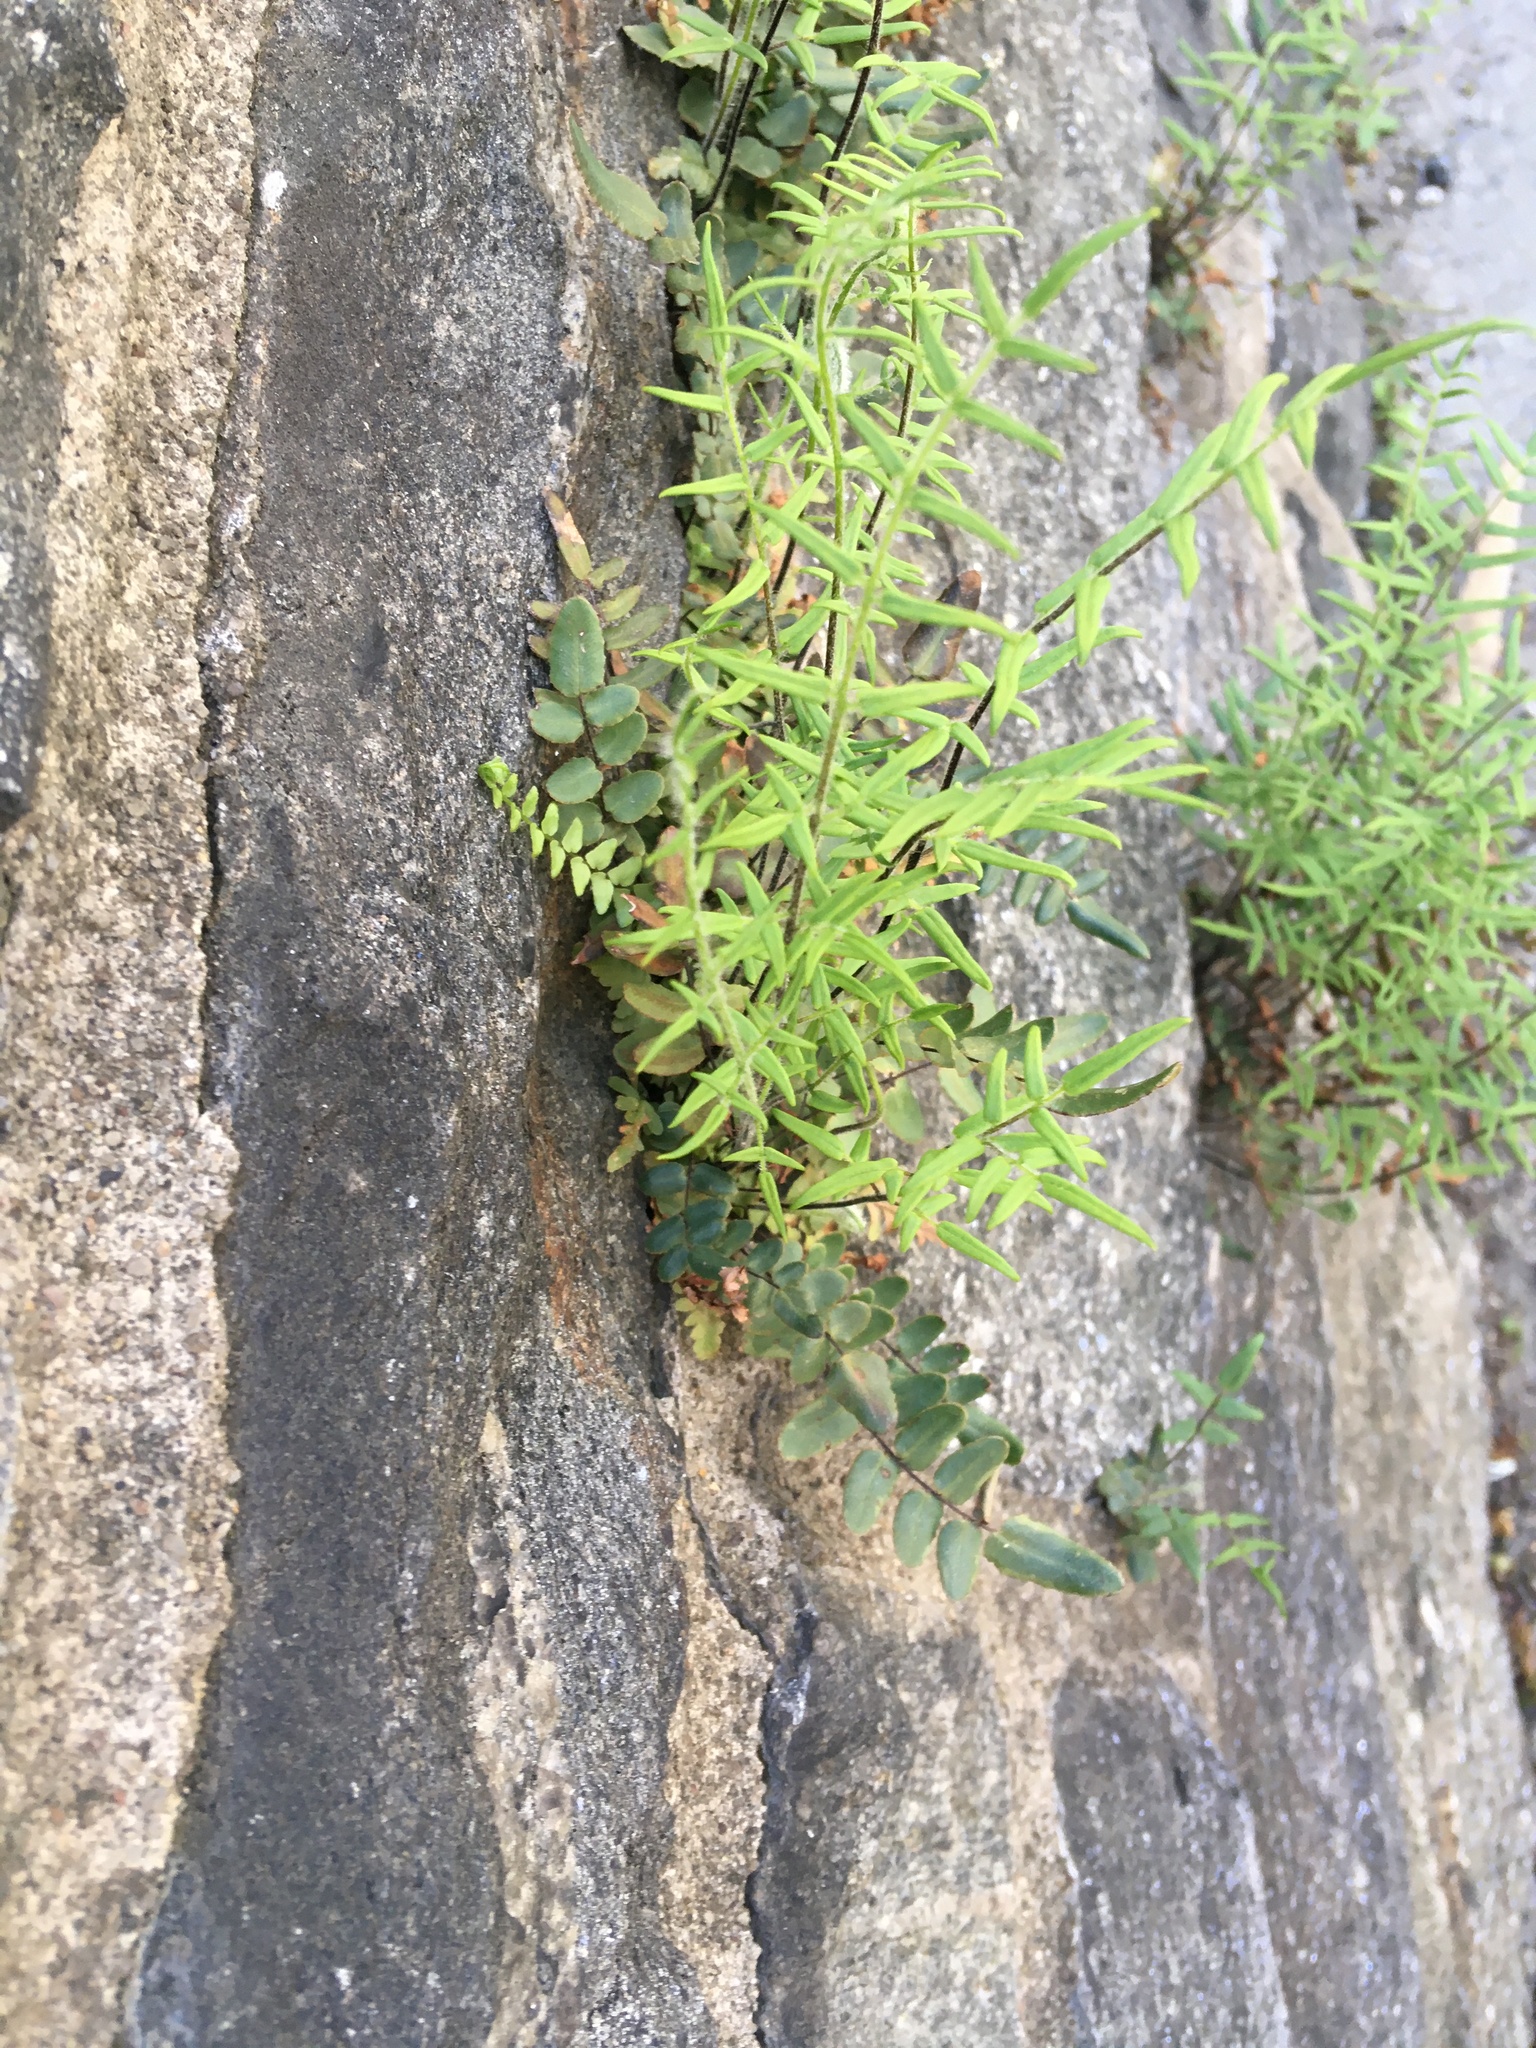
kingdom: Plantae
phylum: Tracheophyta
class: Polypodiopsida
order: Polypodiales
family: Pteridaceae
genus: Pellaea
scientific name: Pellaea atropurpurea
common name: Hairy cliffbrake
